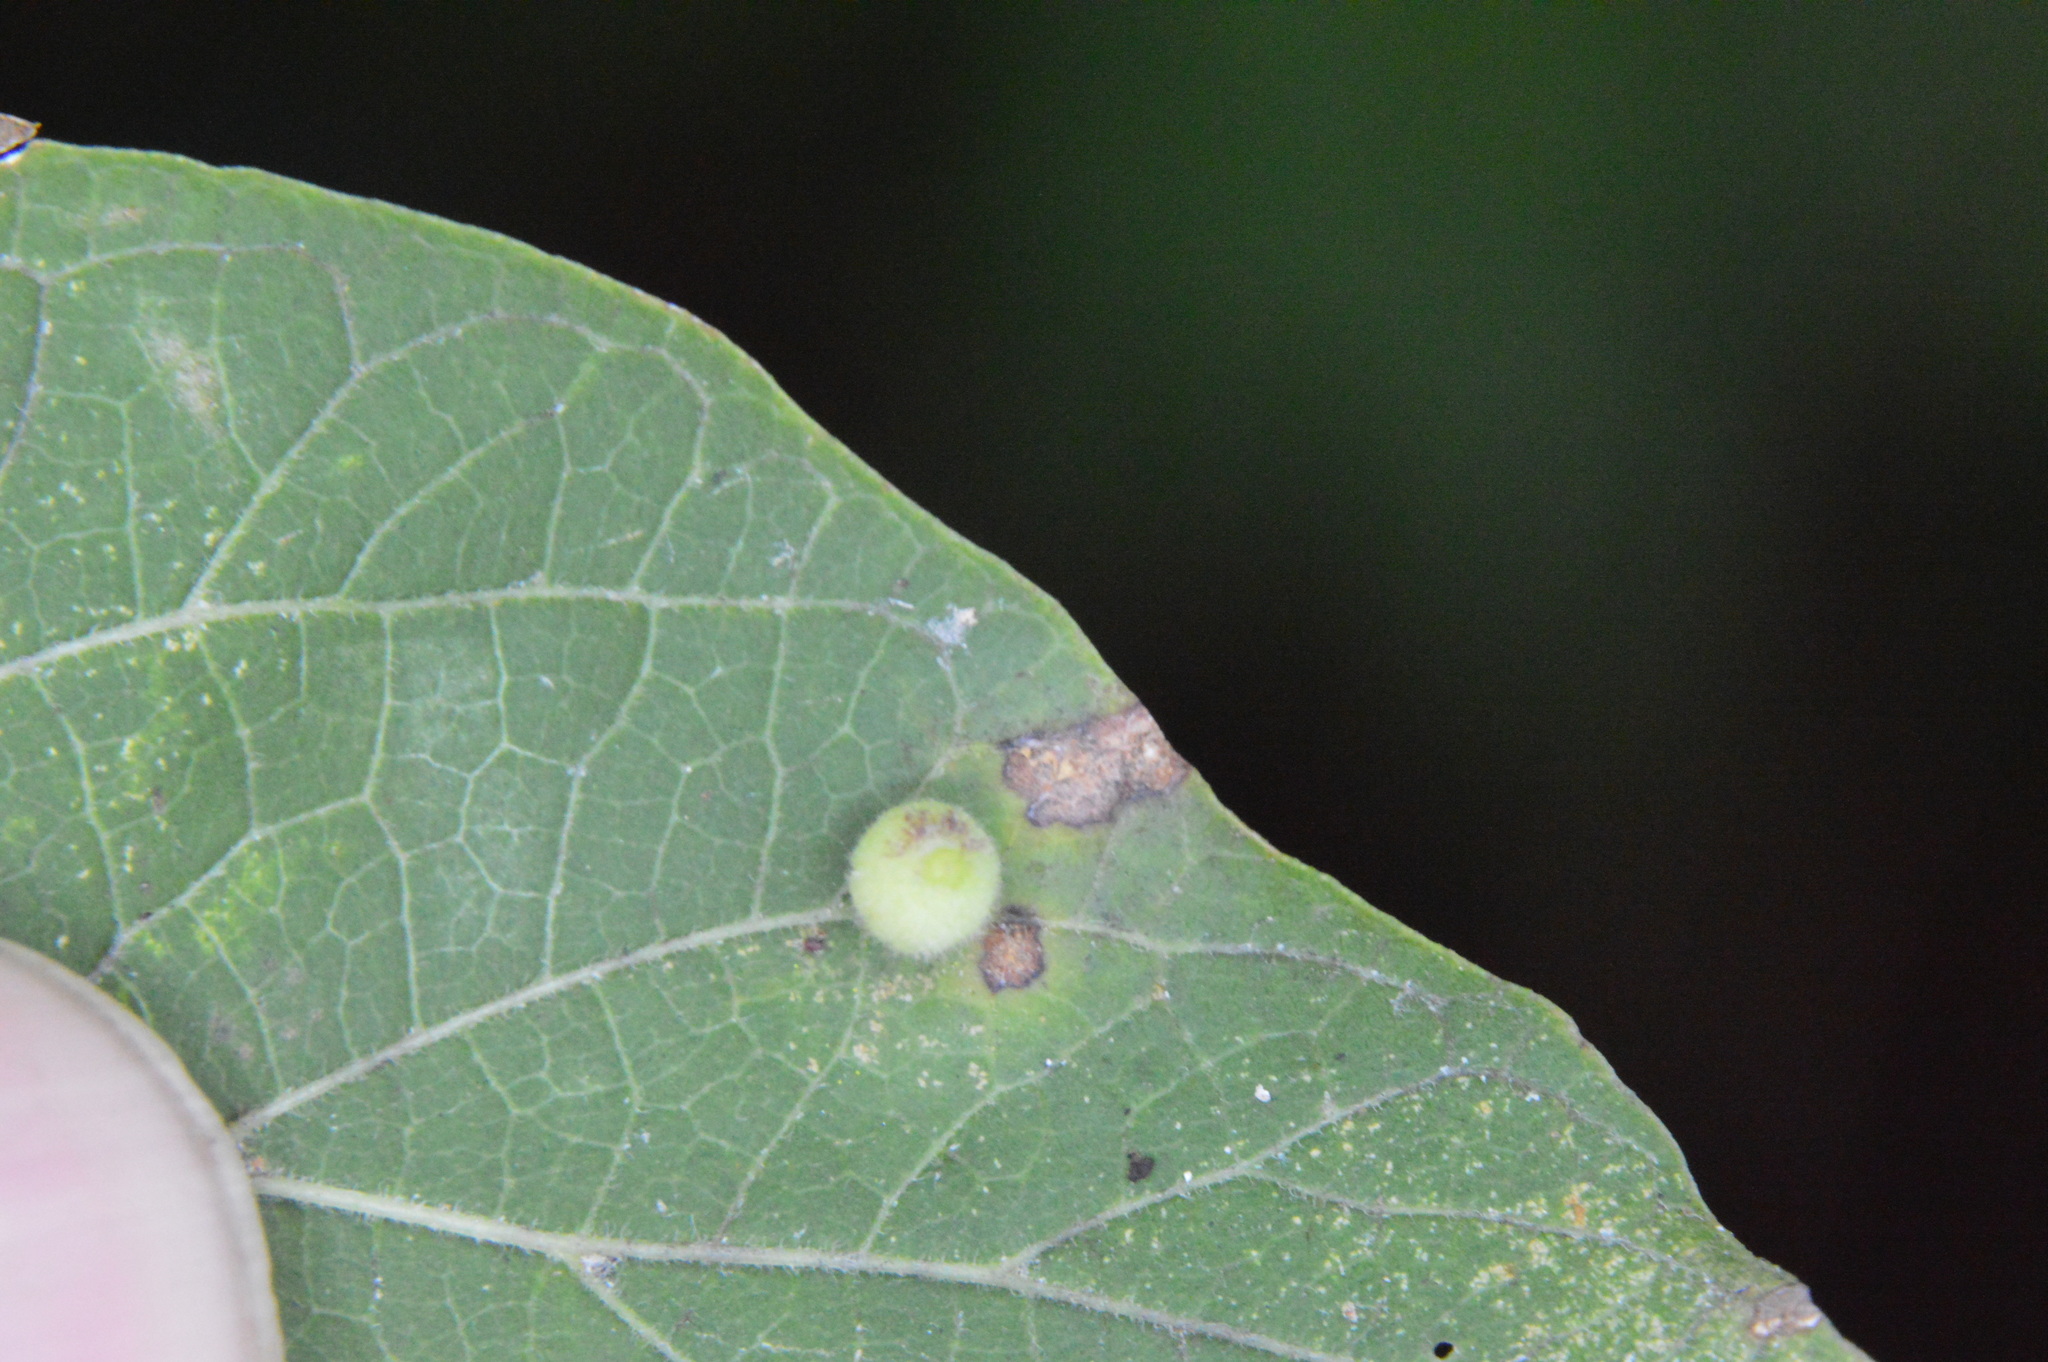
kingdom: Animalia
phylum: Arthropoda
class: Insecta
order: Diptera
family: Cecidomyiidae
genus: Celticecis
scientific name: Celticecis globosa
